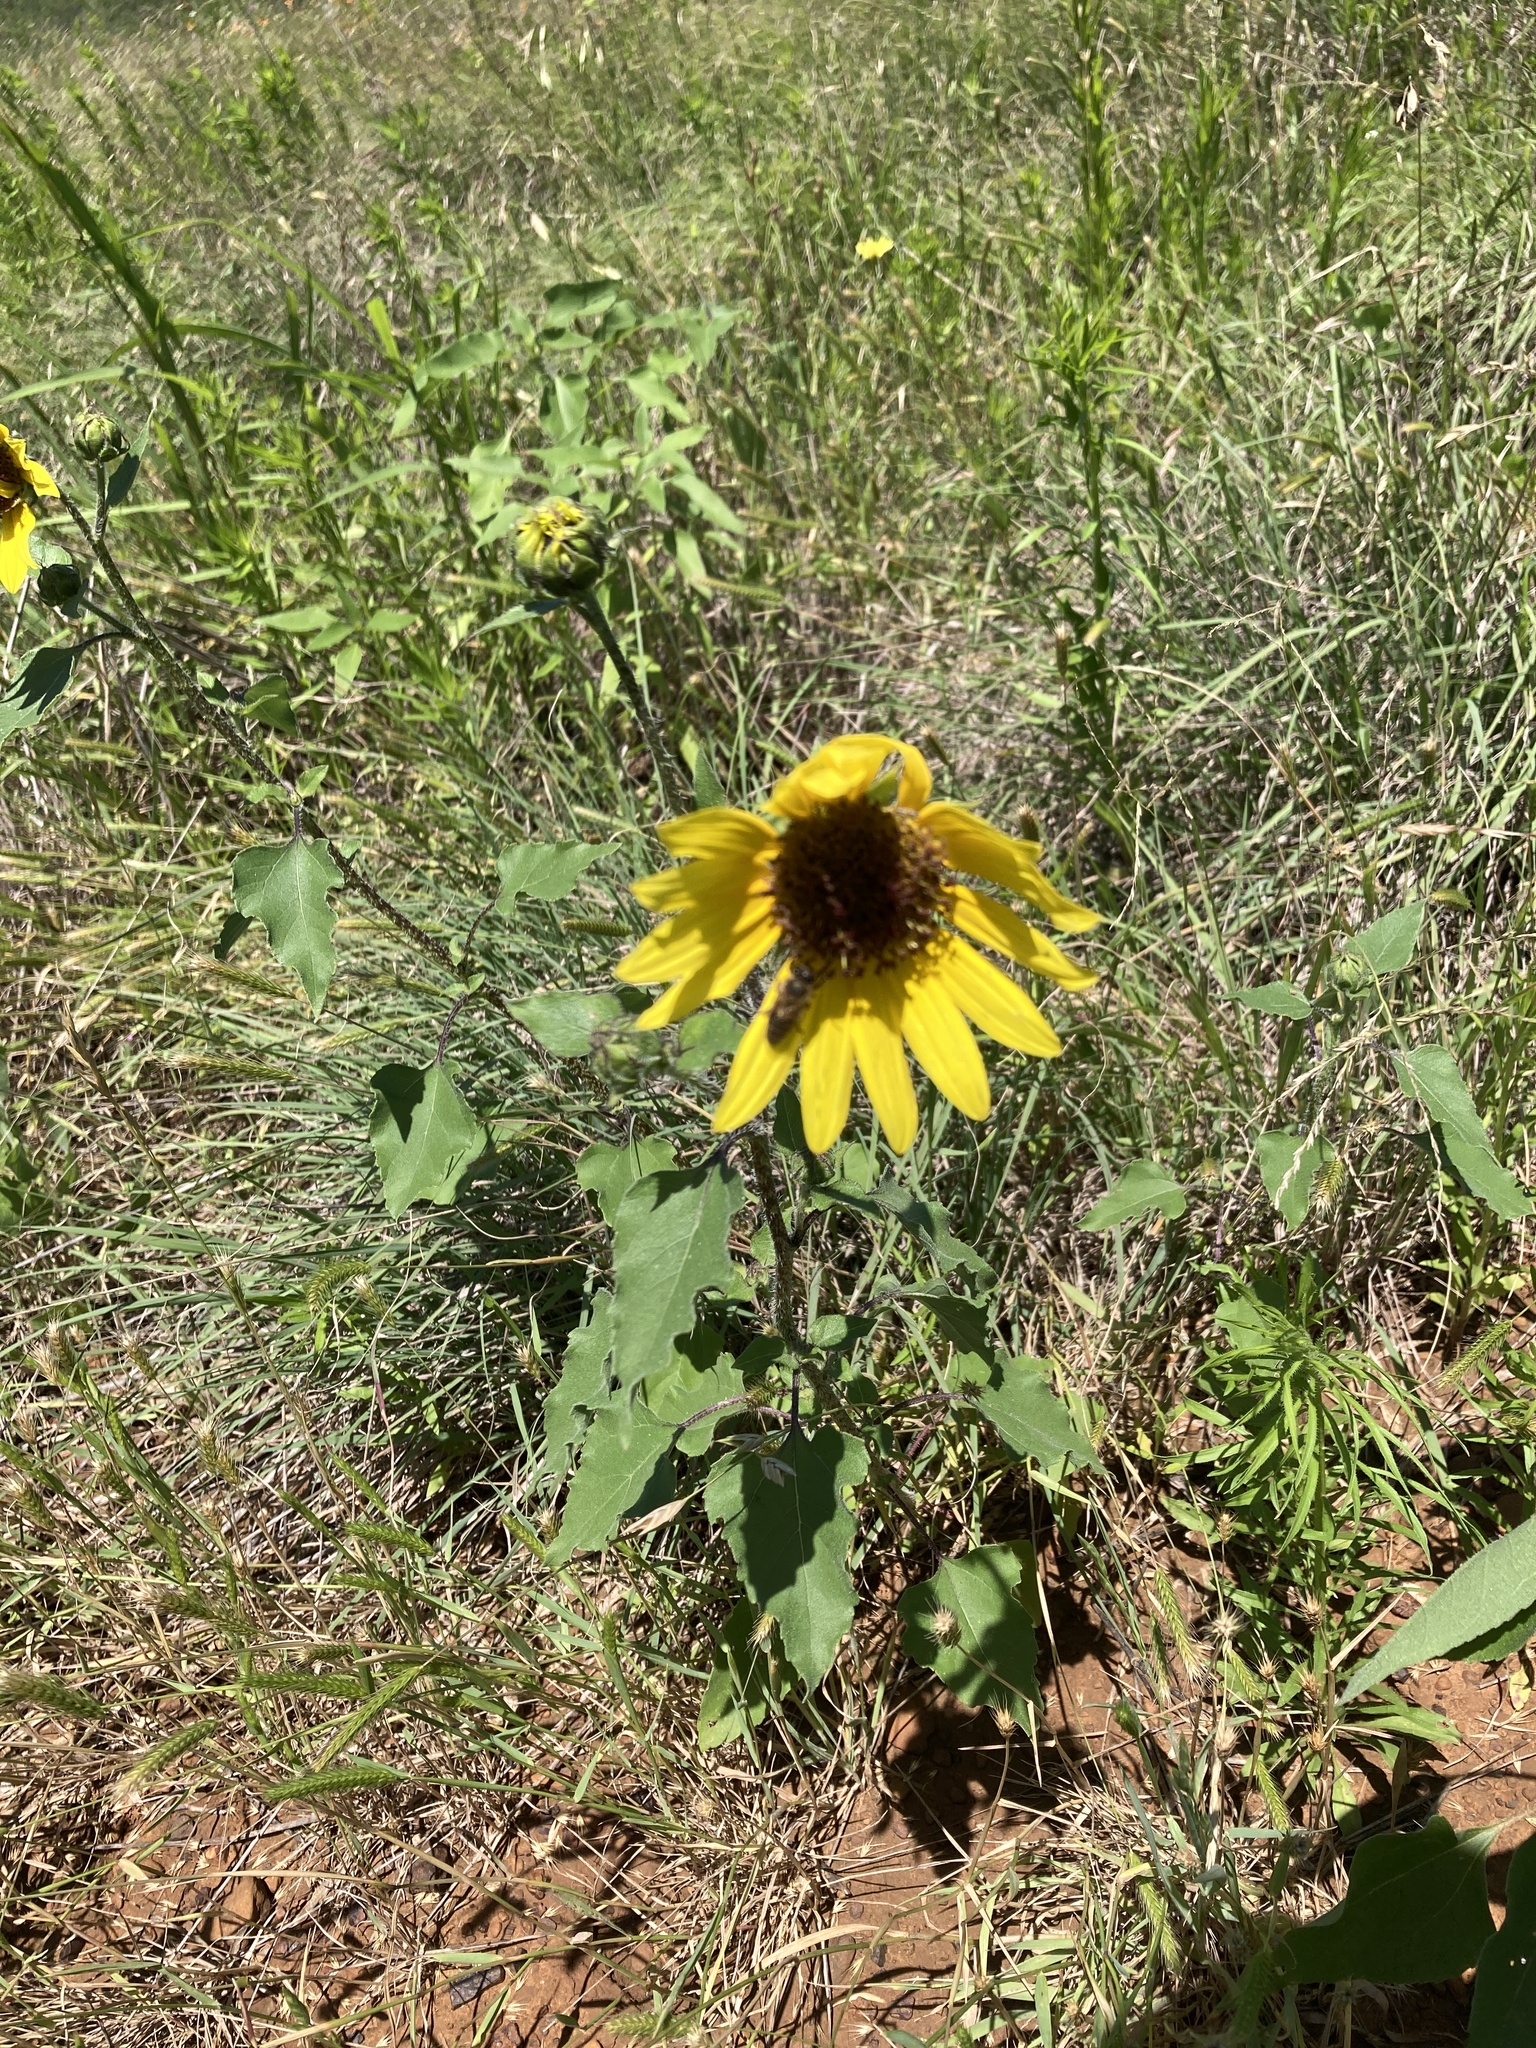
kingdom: Plantae
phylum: Tracheophyta
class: Magnoliopsida
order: Asterales
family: Asteraceae
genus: Helianthus
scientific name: Helianthus annuus
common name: Sunflower
